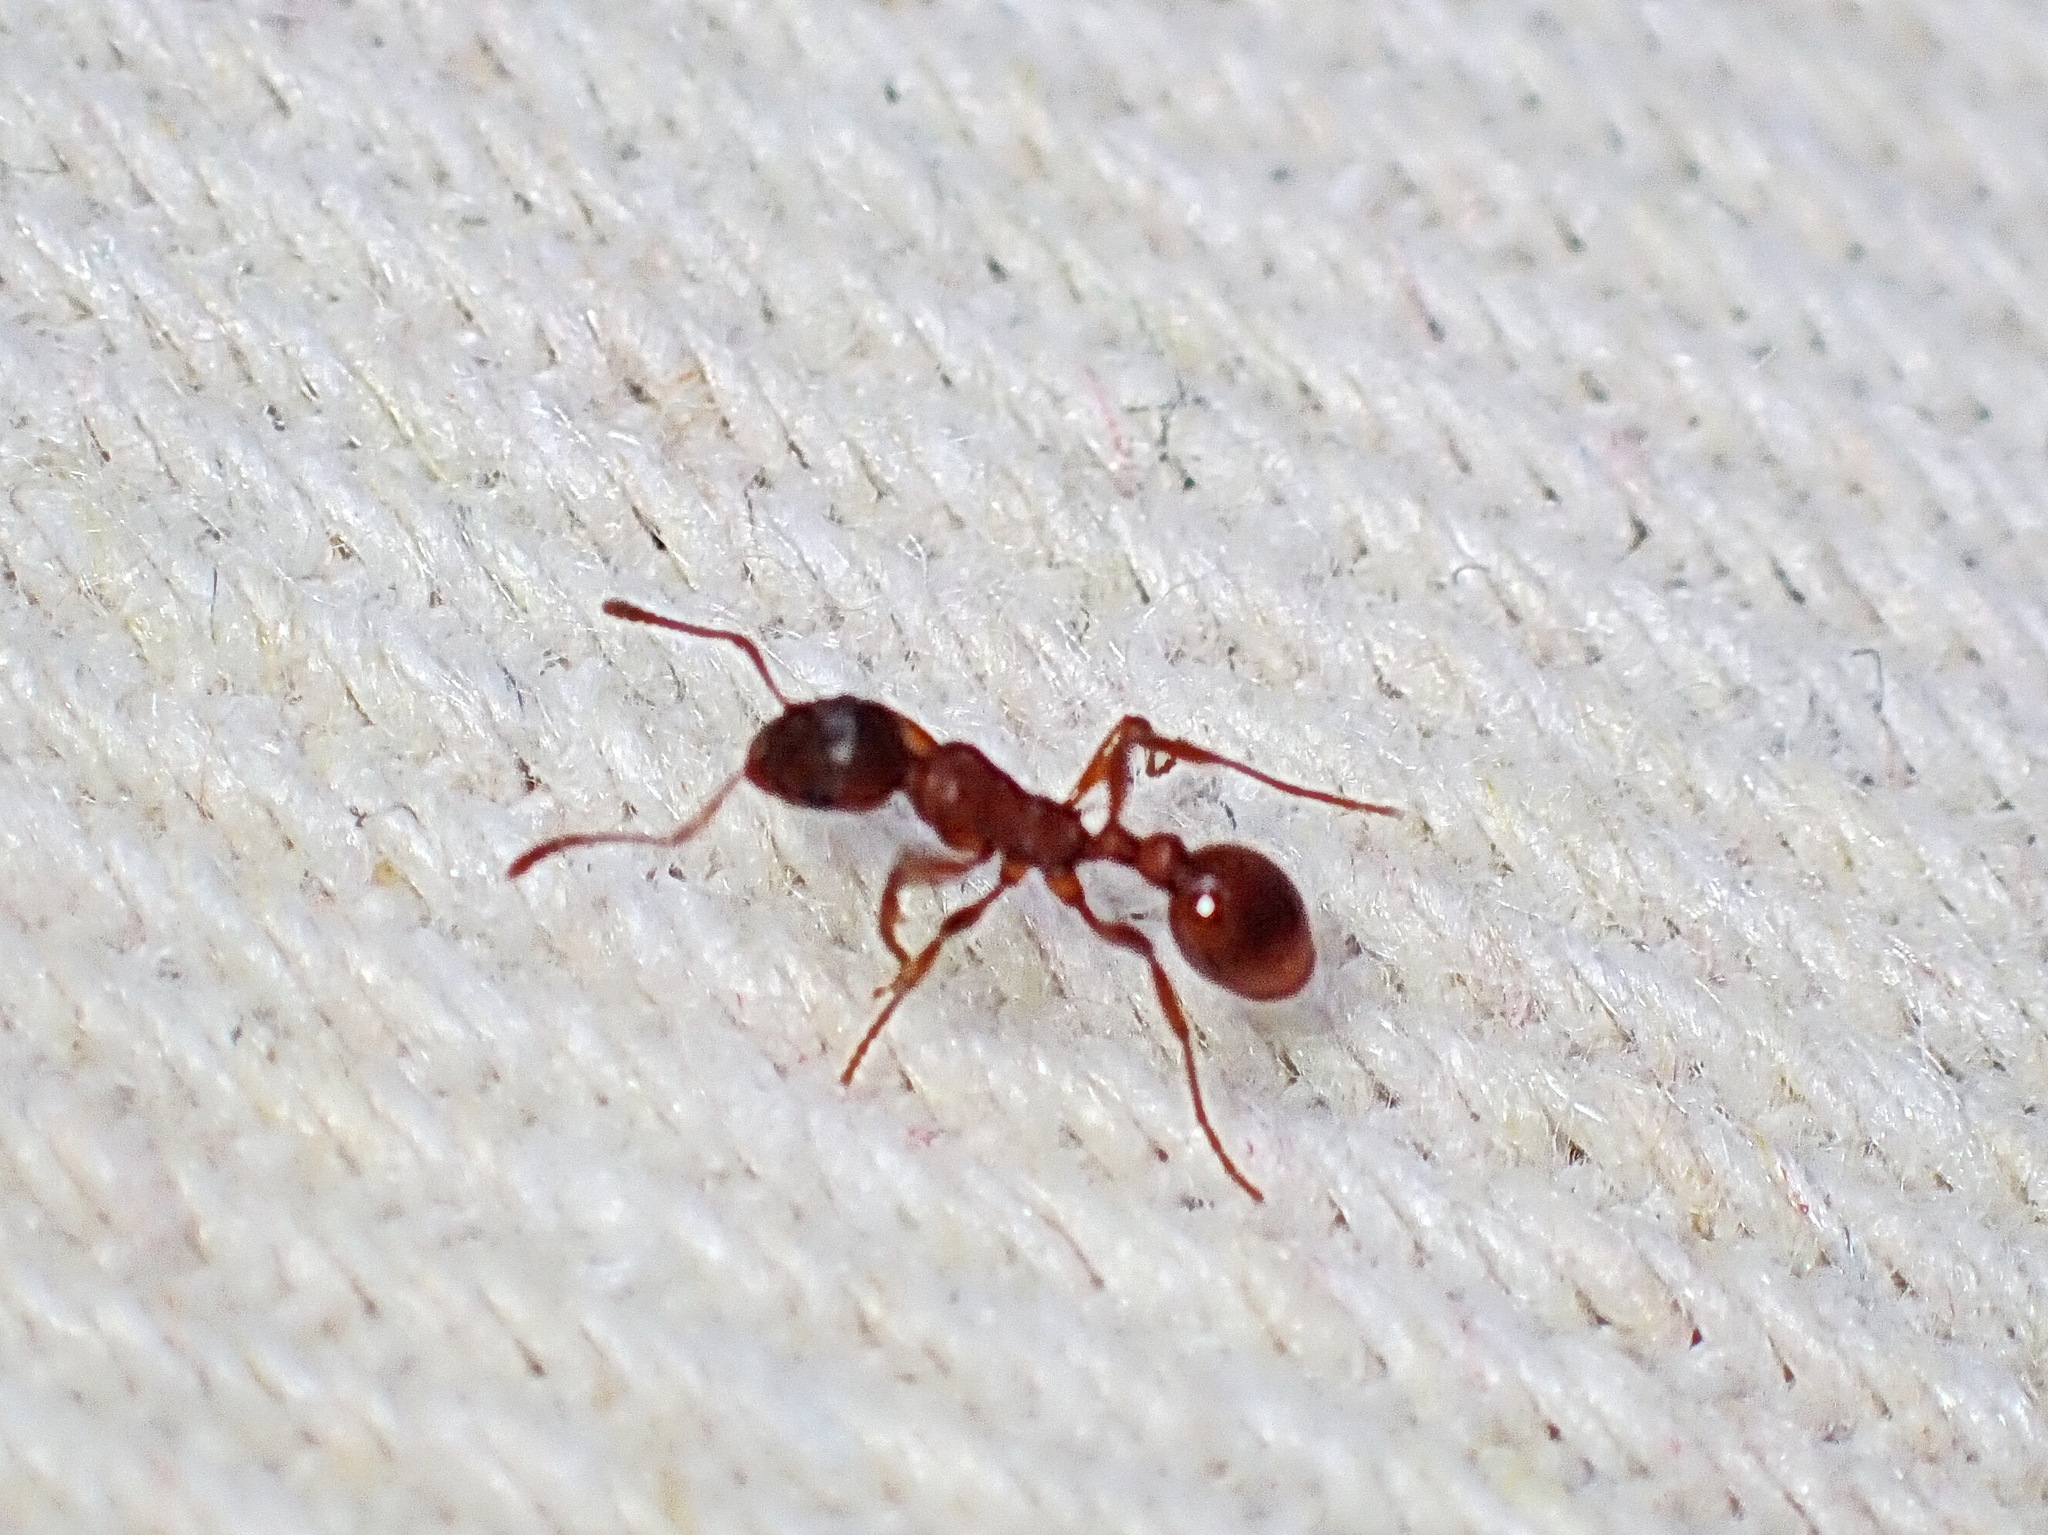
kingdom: Animalia
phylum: Arthropoda
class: Insecta
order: Hymenoptera
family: Formicidae
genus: Myrmica
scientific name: Myrmica rubra
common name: European fire ant
